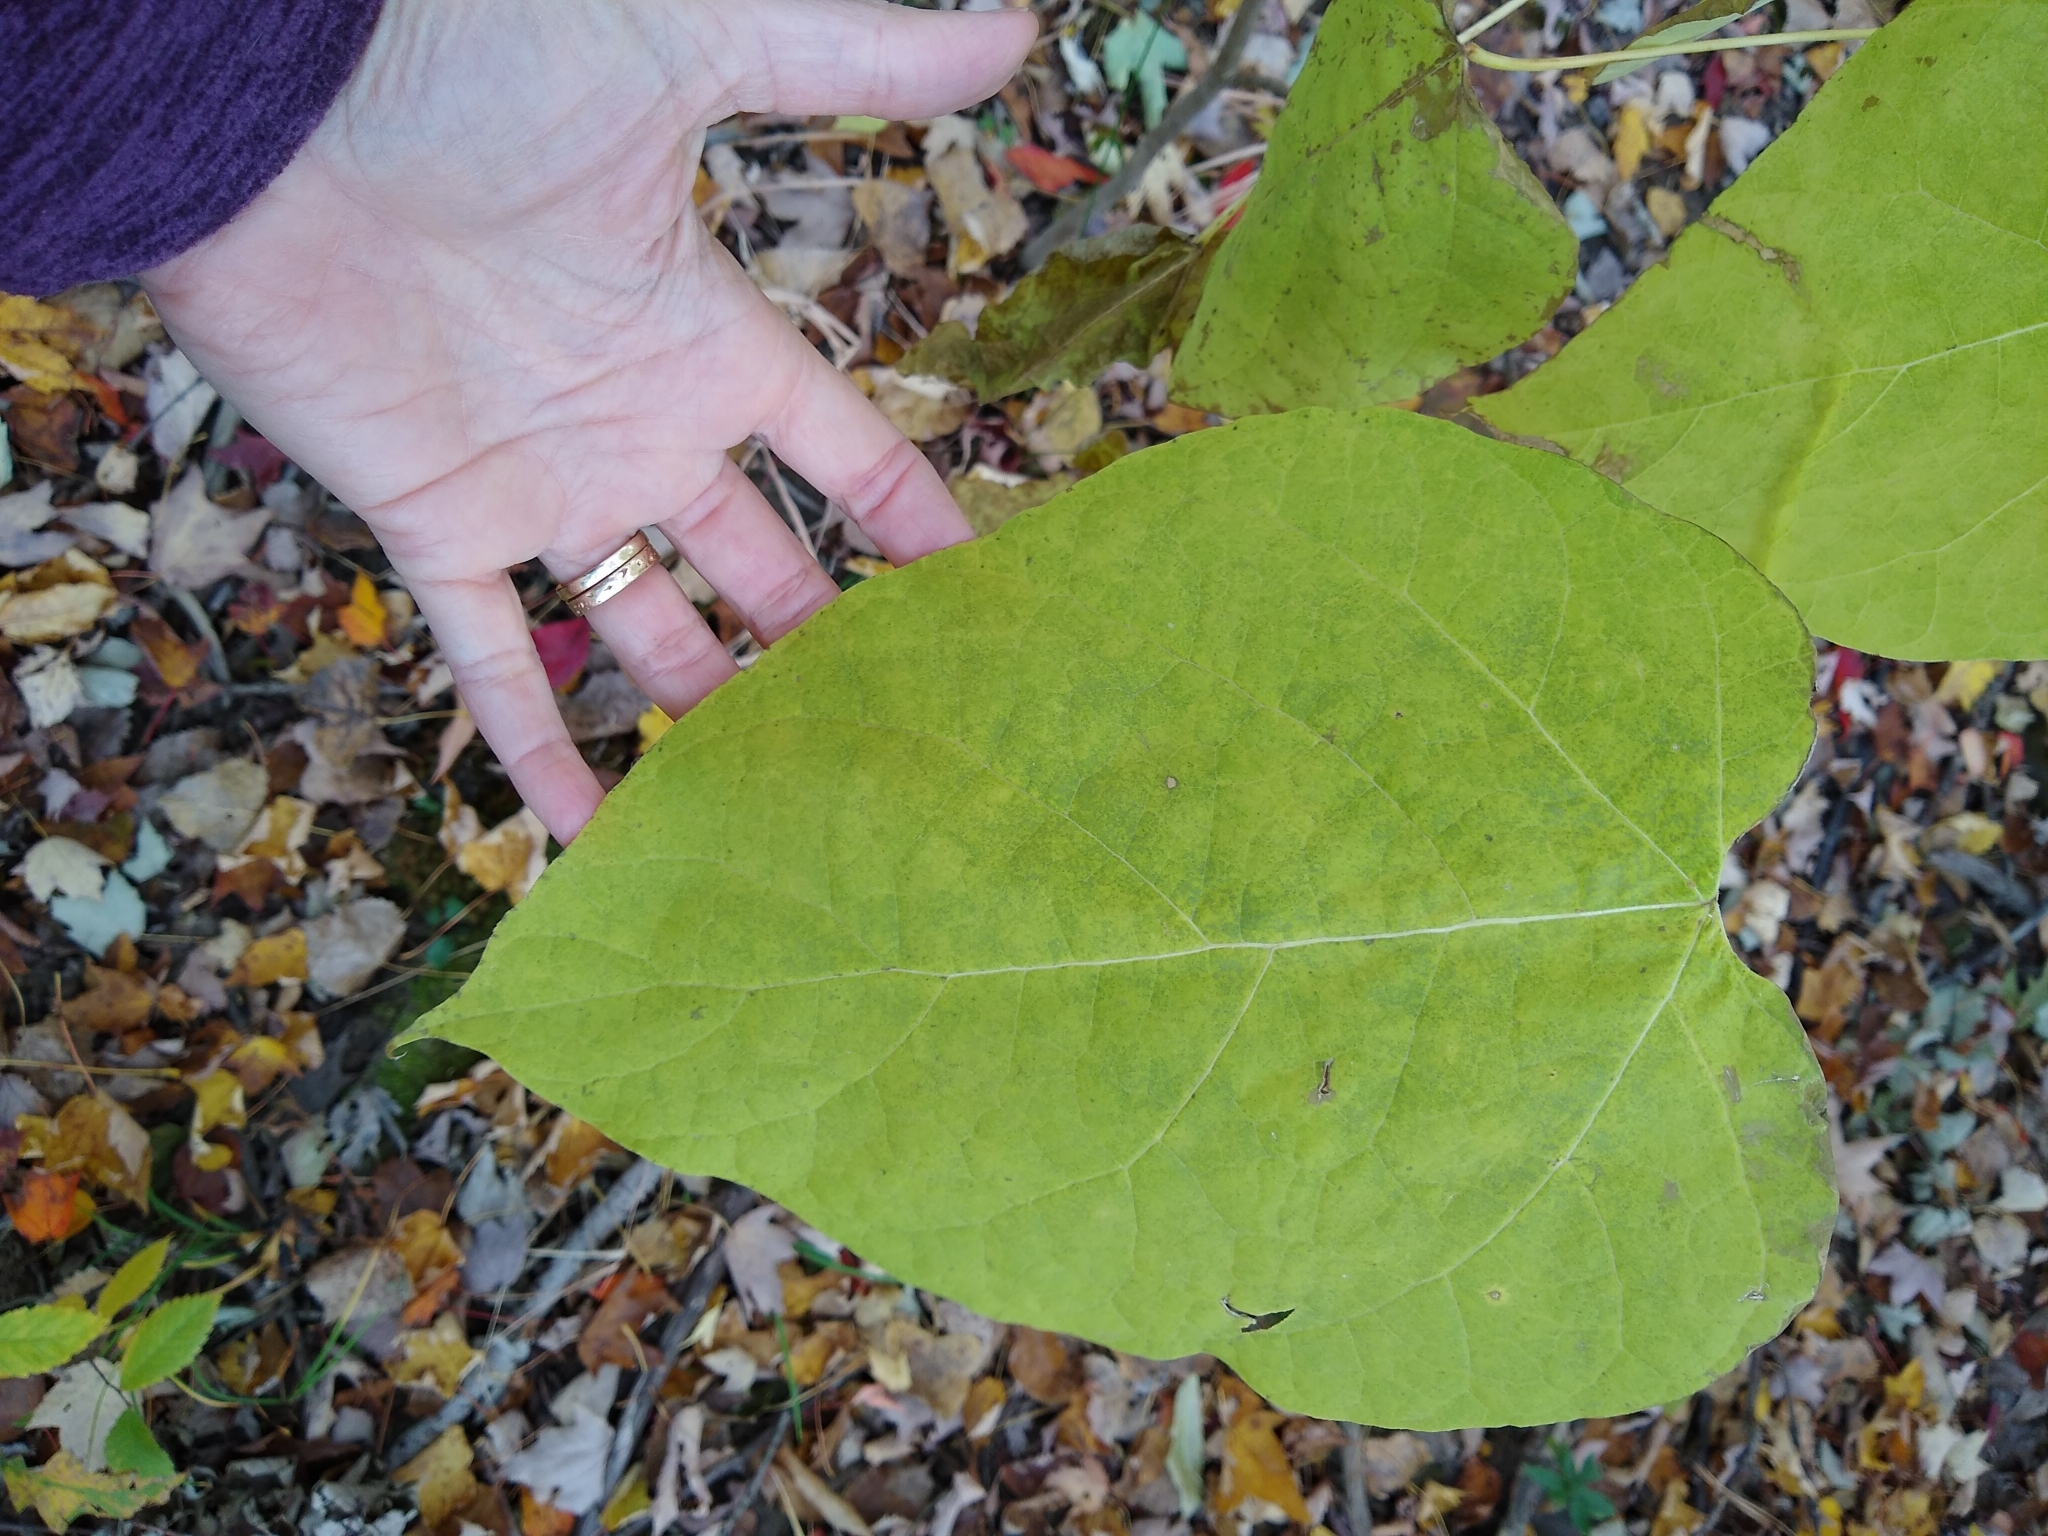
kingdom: Plantae
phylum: Tracheophyta
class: Magnoliopsida
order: Lamiales
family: Bignoniaceae
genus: Catalpa
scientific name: Catalpa speciosa
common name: Northern catalpa
